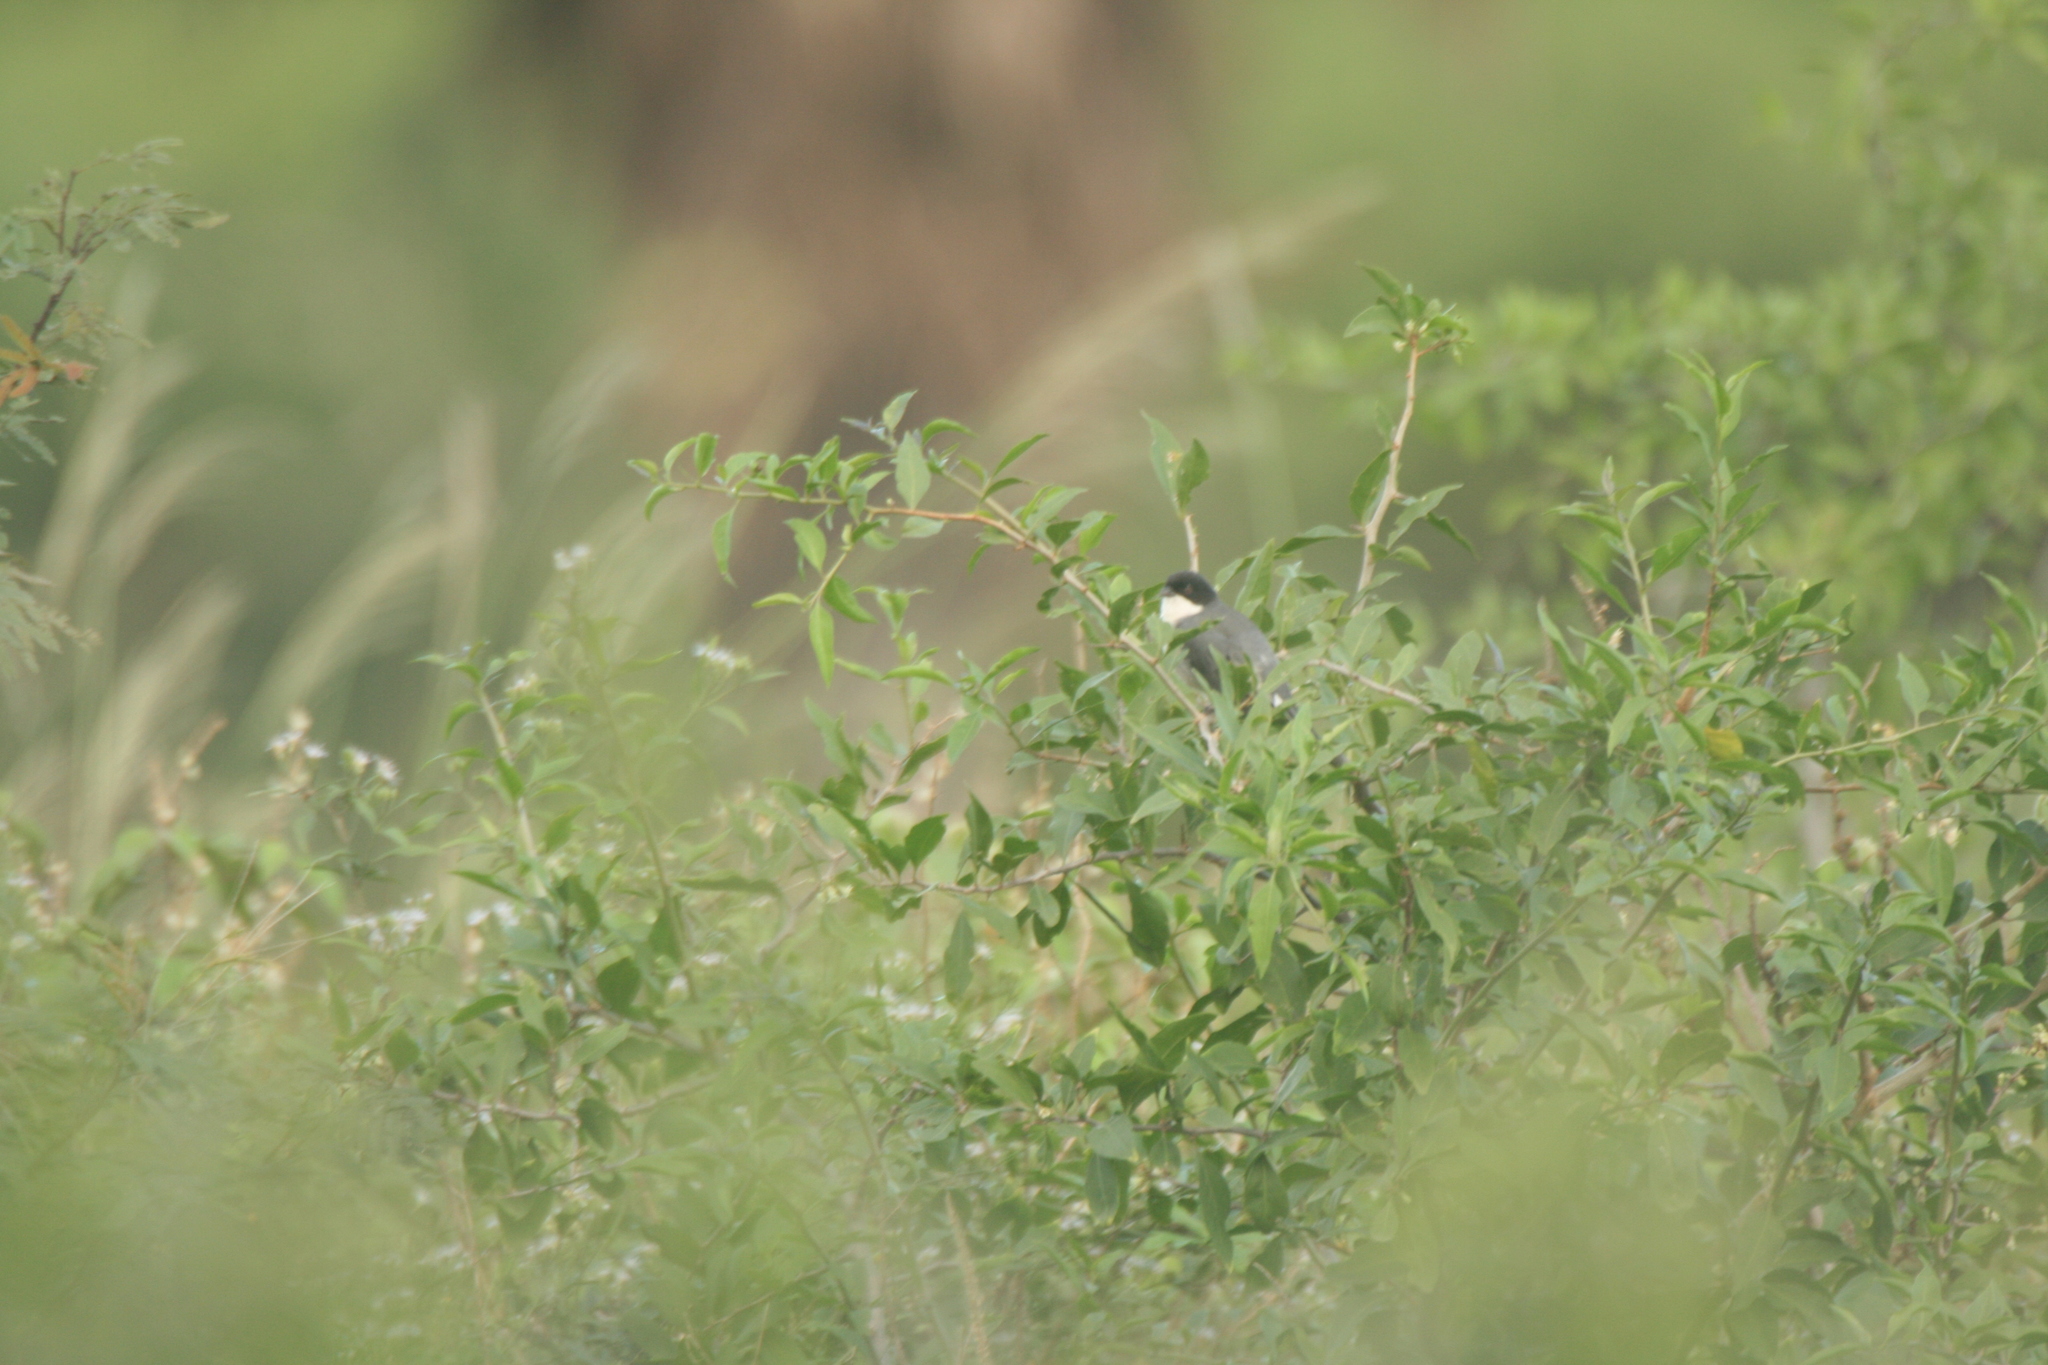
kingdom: Animalia
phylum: Chordata
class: Aves
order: Passeriformes
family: Thraupidae
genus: Microspingus
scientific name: Microspingus melanoleucus
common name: Black-capped warbling-finch
